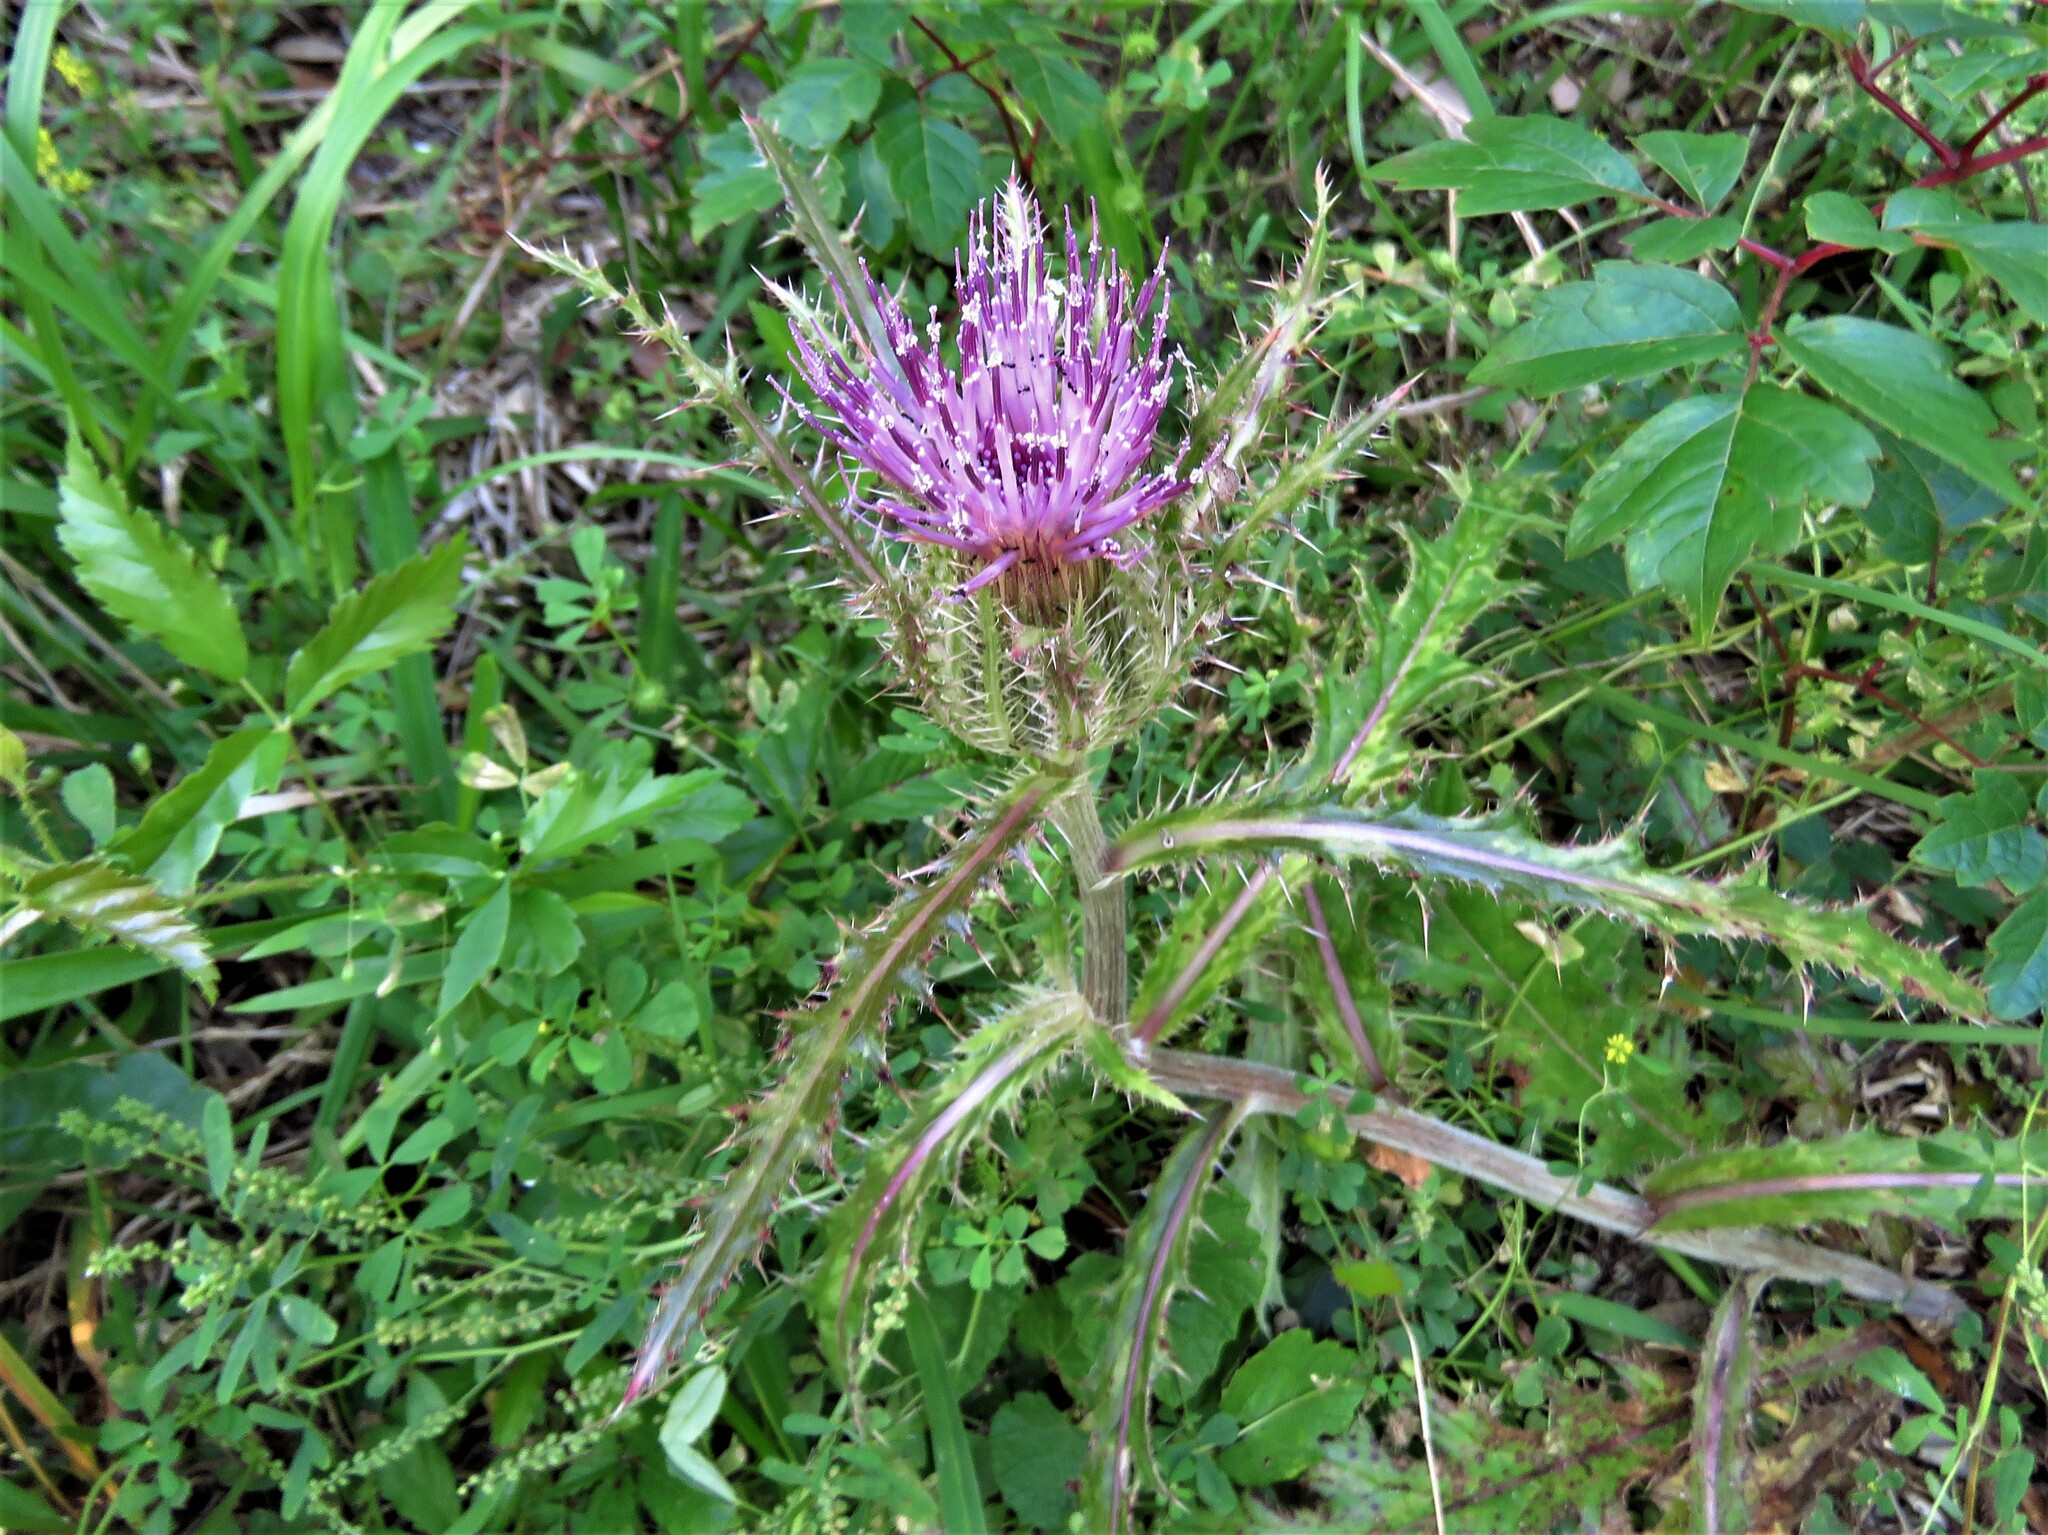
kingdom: Plantae
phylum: Tracheophyta
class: Magnoliopsida
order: Asterales
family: Asteraceae
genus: Cirsium
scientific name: Cirsium horridulum
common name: Bristly thistle
